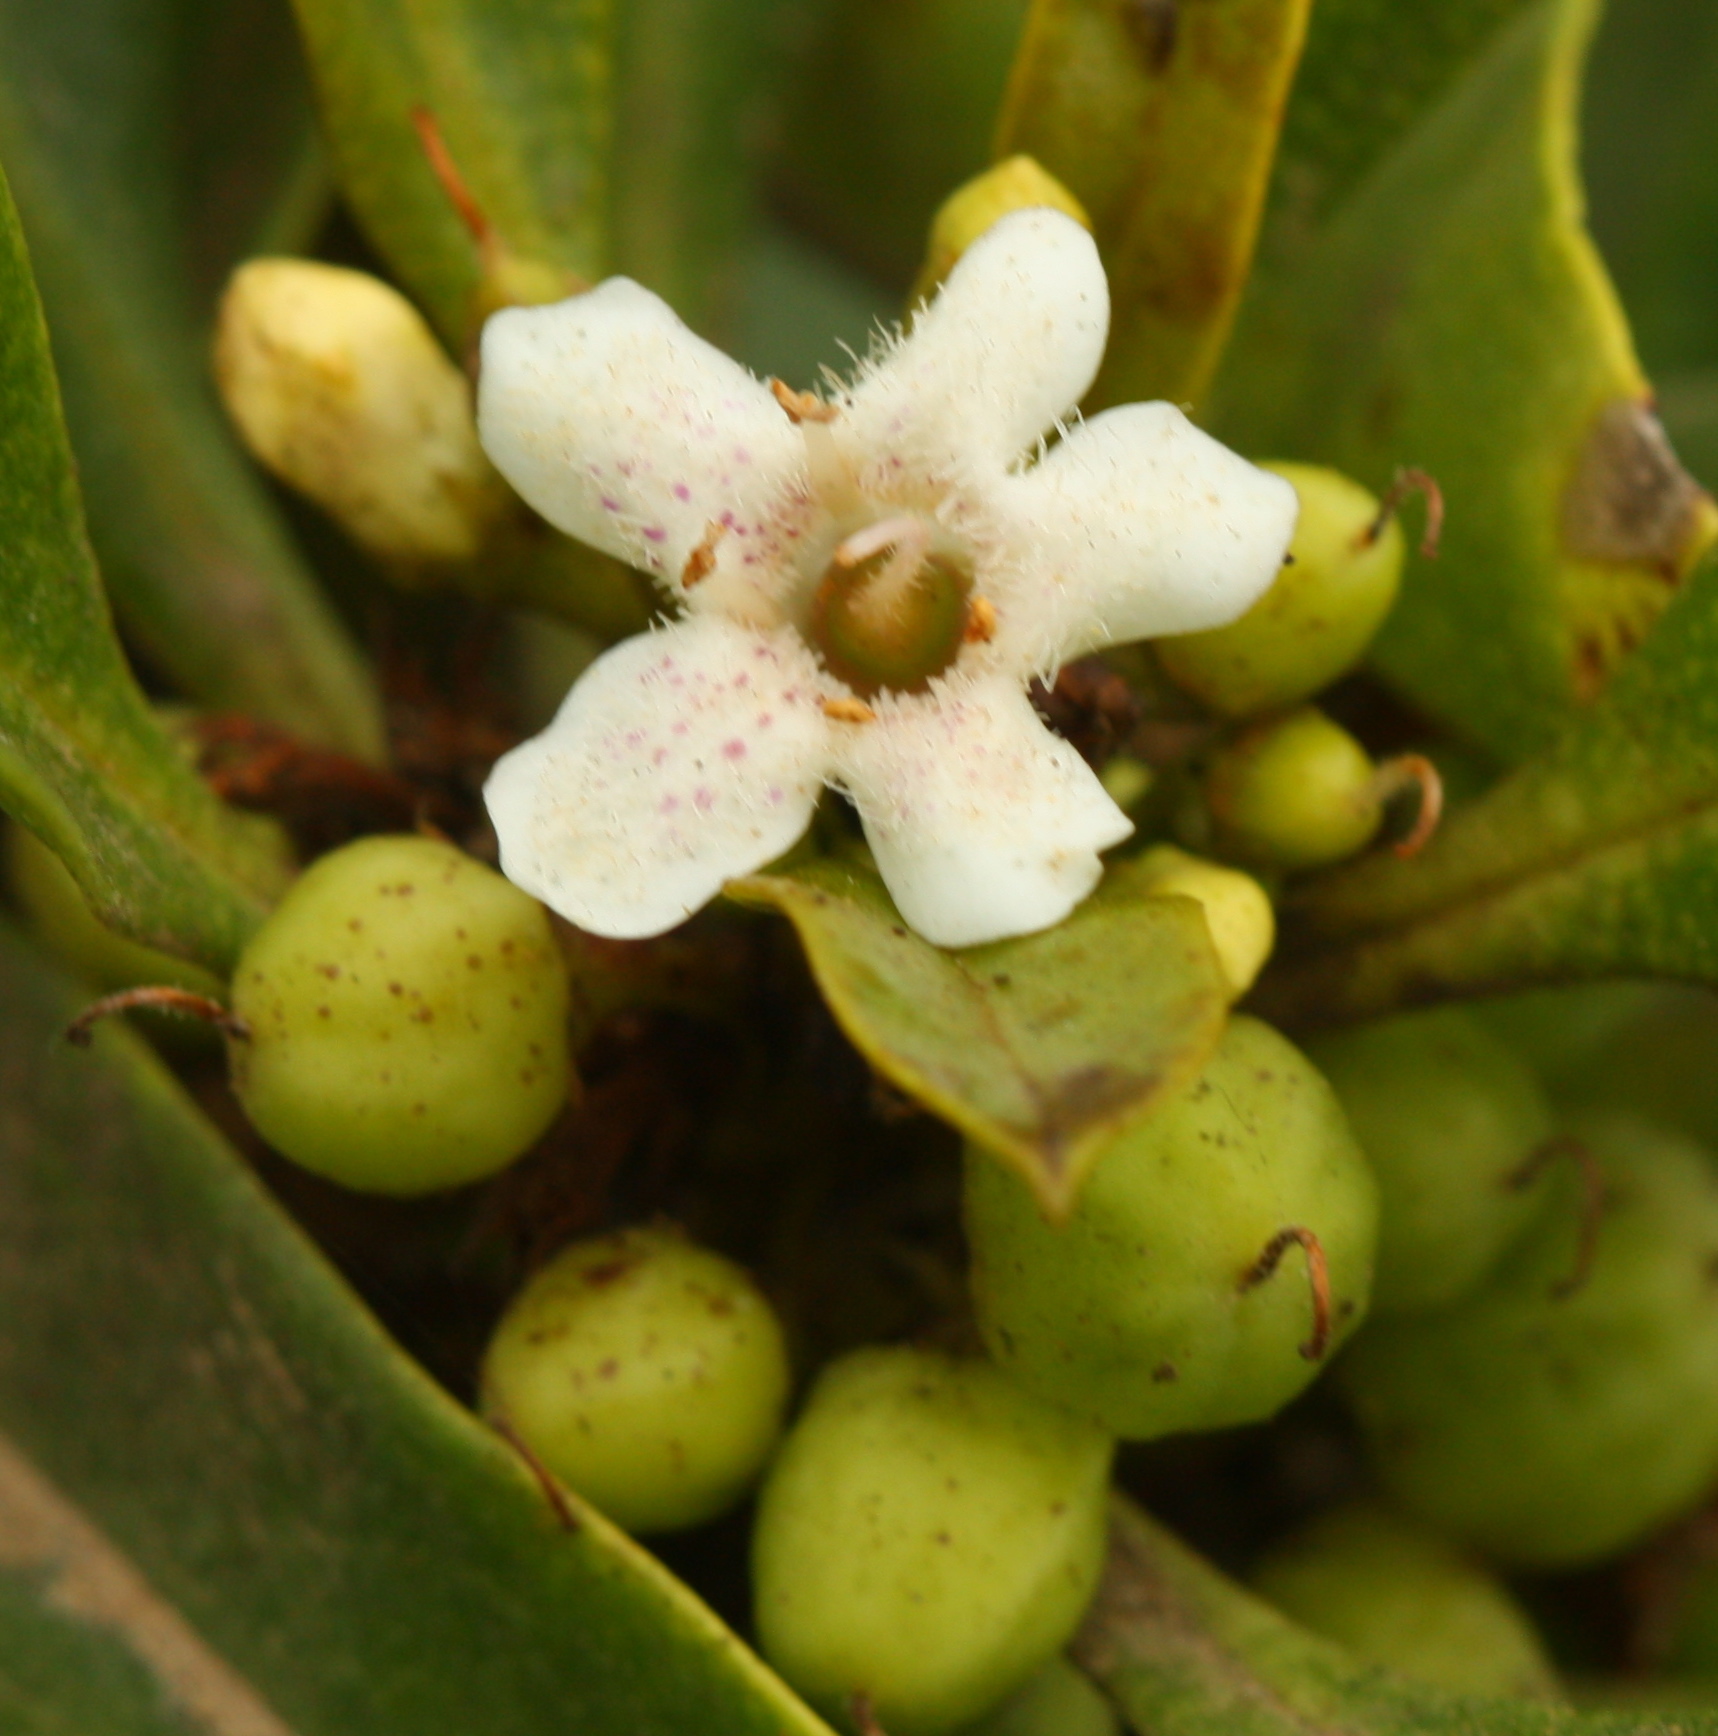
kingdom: Plantae
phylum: Tracheophyta
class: Magnoliopsida
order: Lamiales
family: Scrophulariaceae
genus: Myoporum
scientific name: Myoporum laetum
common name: Ngaio tree
